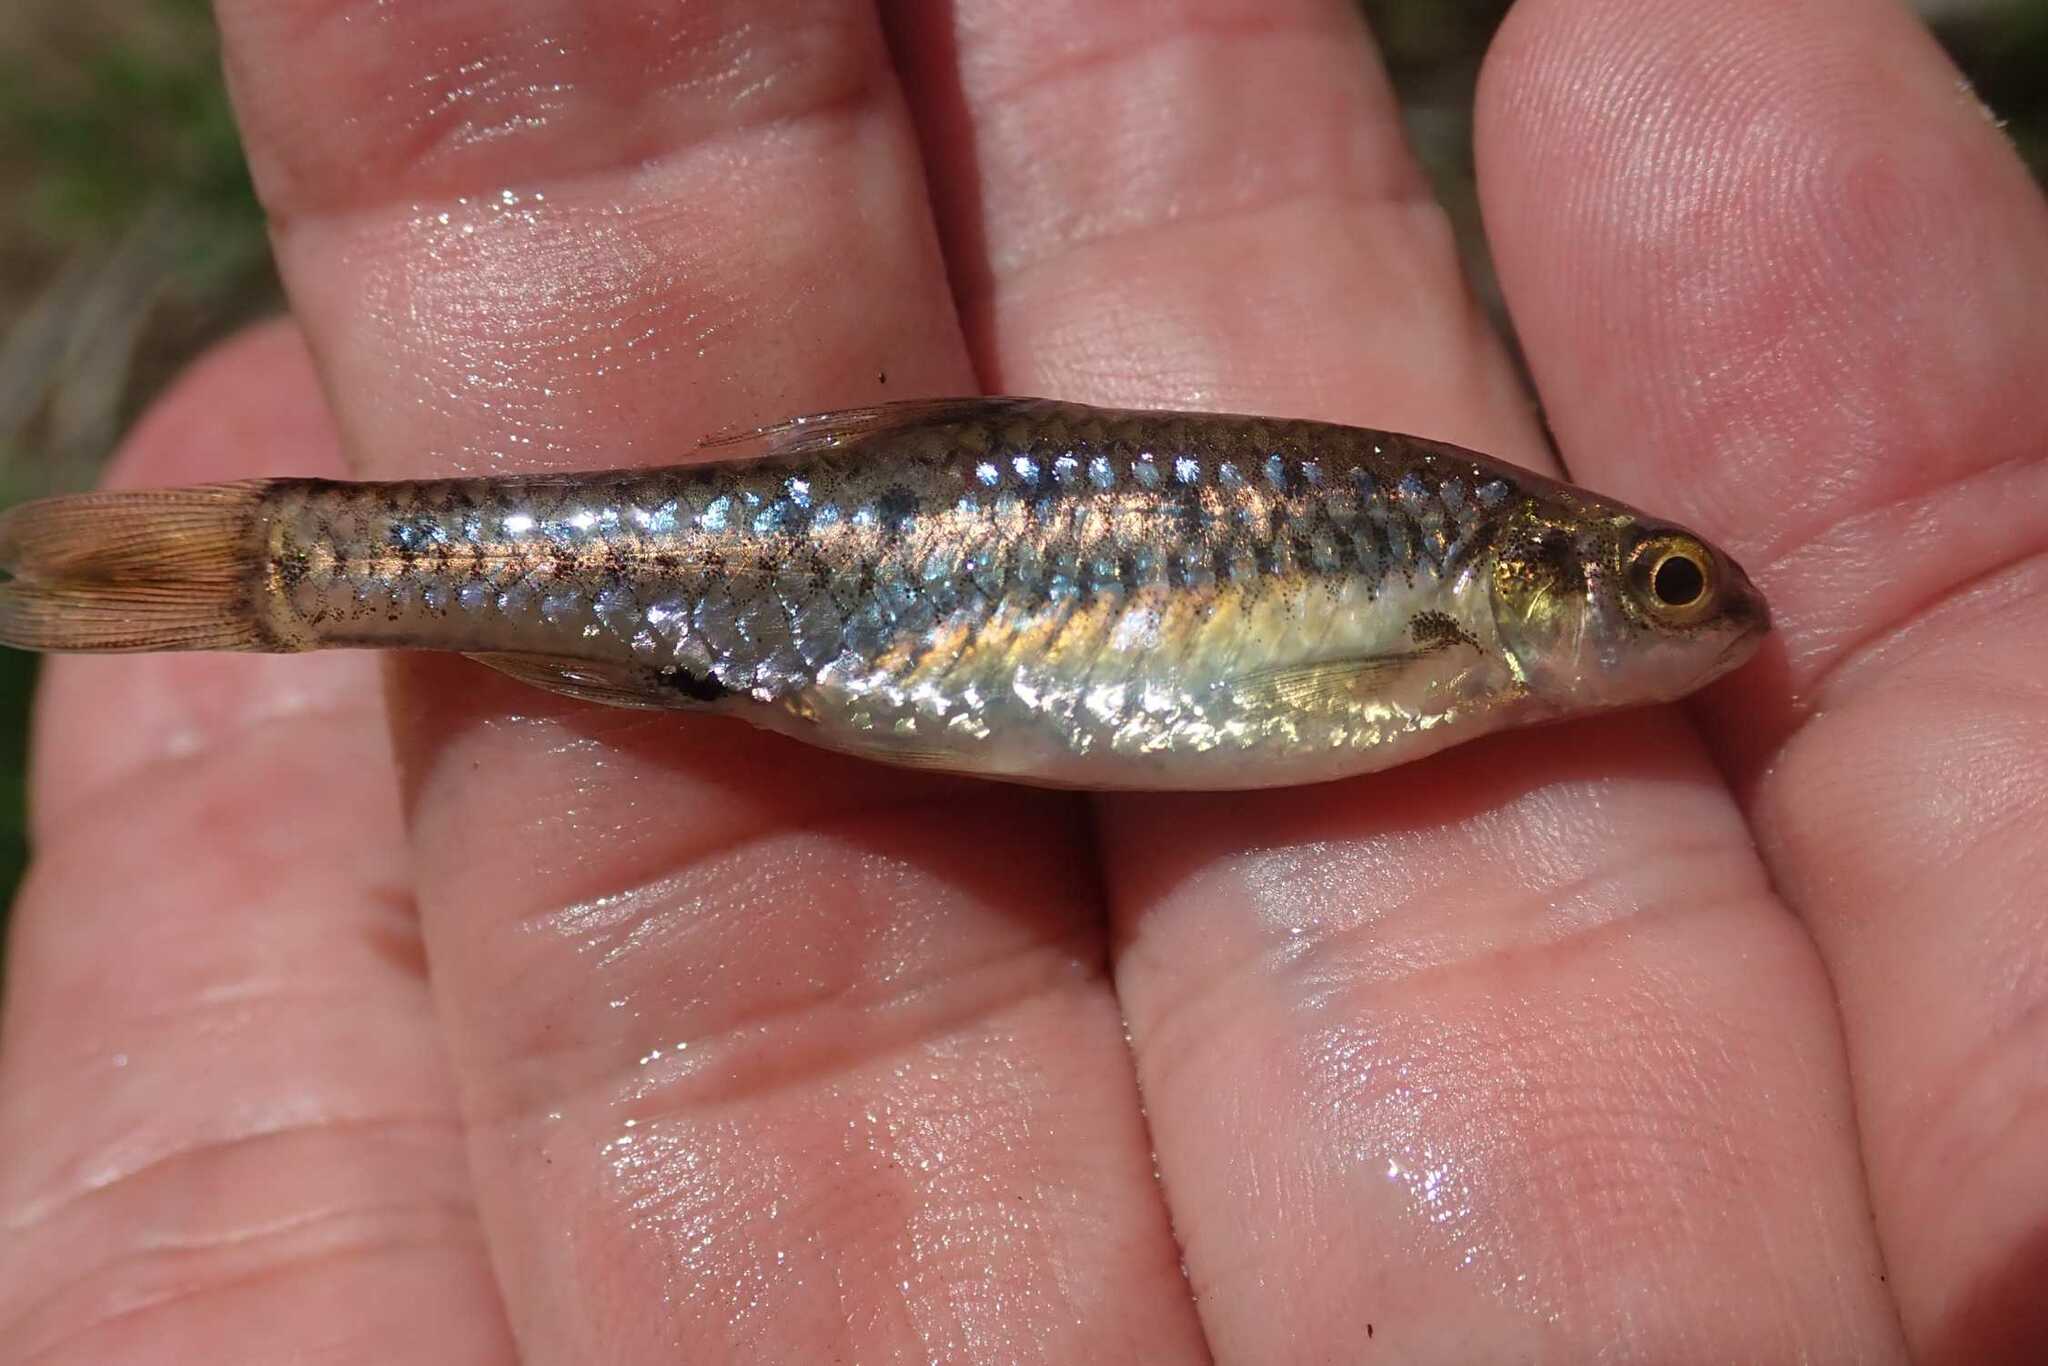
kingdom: Animalia
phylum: Chordata
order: Cypriniformes
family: Cyprinidae
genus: Enteromius
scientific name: Enteromius neefi
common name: Sidespot barb
